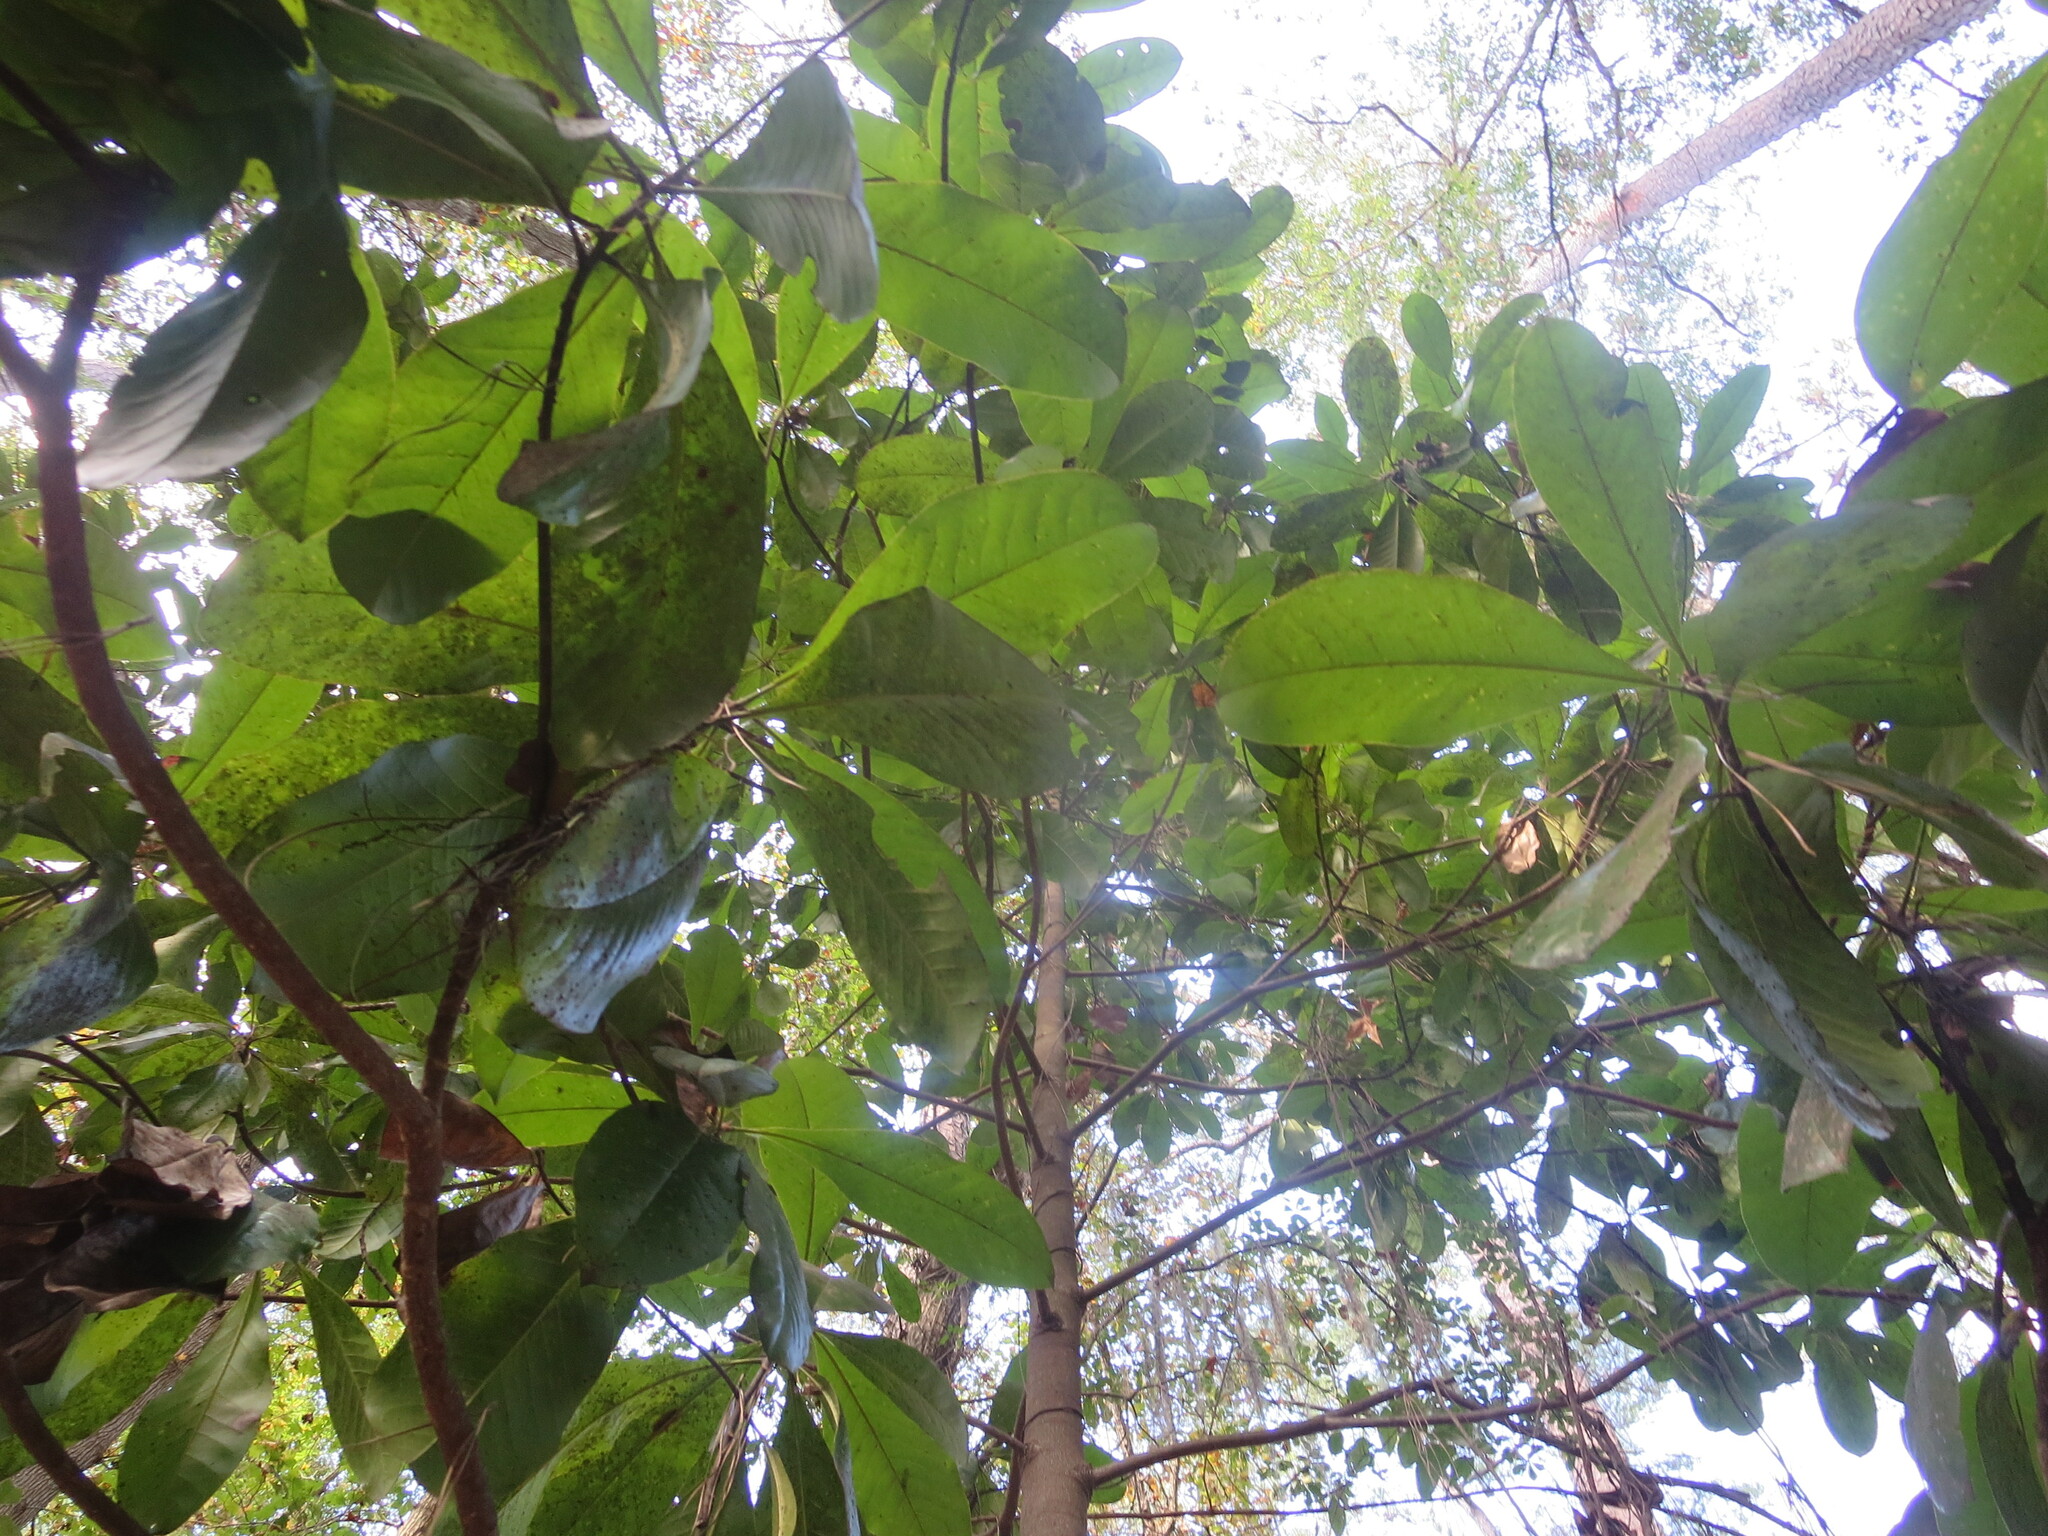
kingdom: Plantae
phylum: Tracheophyta
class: Magnoliopsida
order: Magnoliales
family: Magnoliaceae
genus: Magnolia
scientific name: Magnolia grandiflora
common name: Southern magnolia
